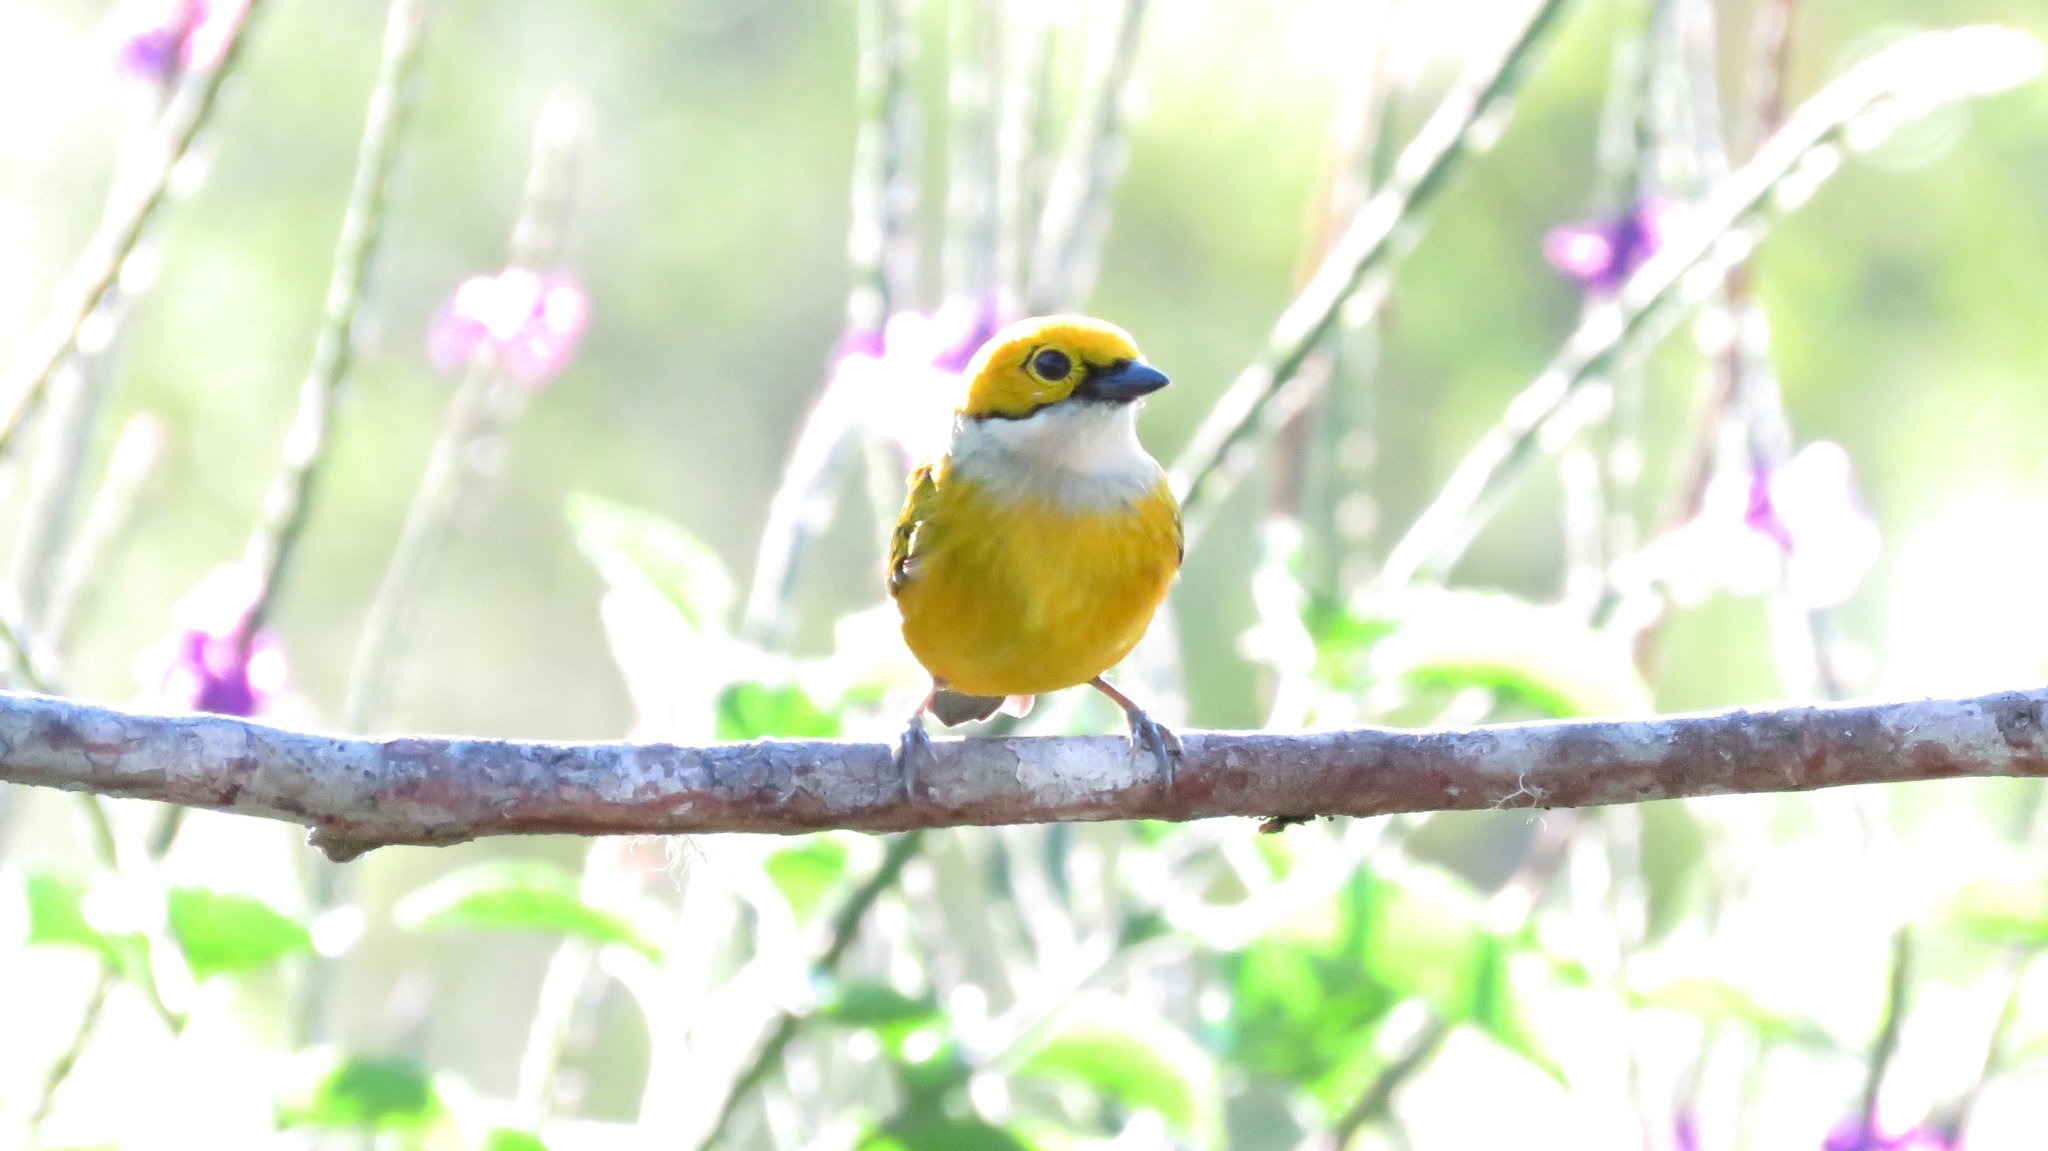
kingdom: Animalia
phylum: Chordata
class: Aves
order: Passeriformes
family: Thraupidae
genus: Tangara
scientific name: Tangara icterocephala
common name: Silver-throated tanager
